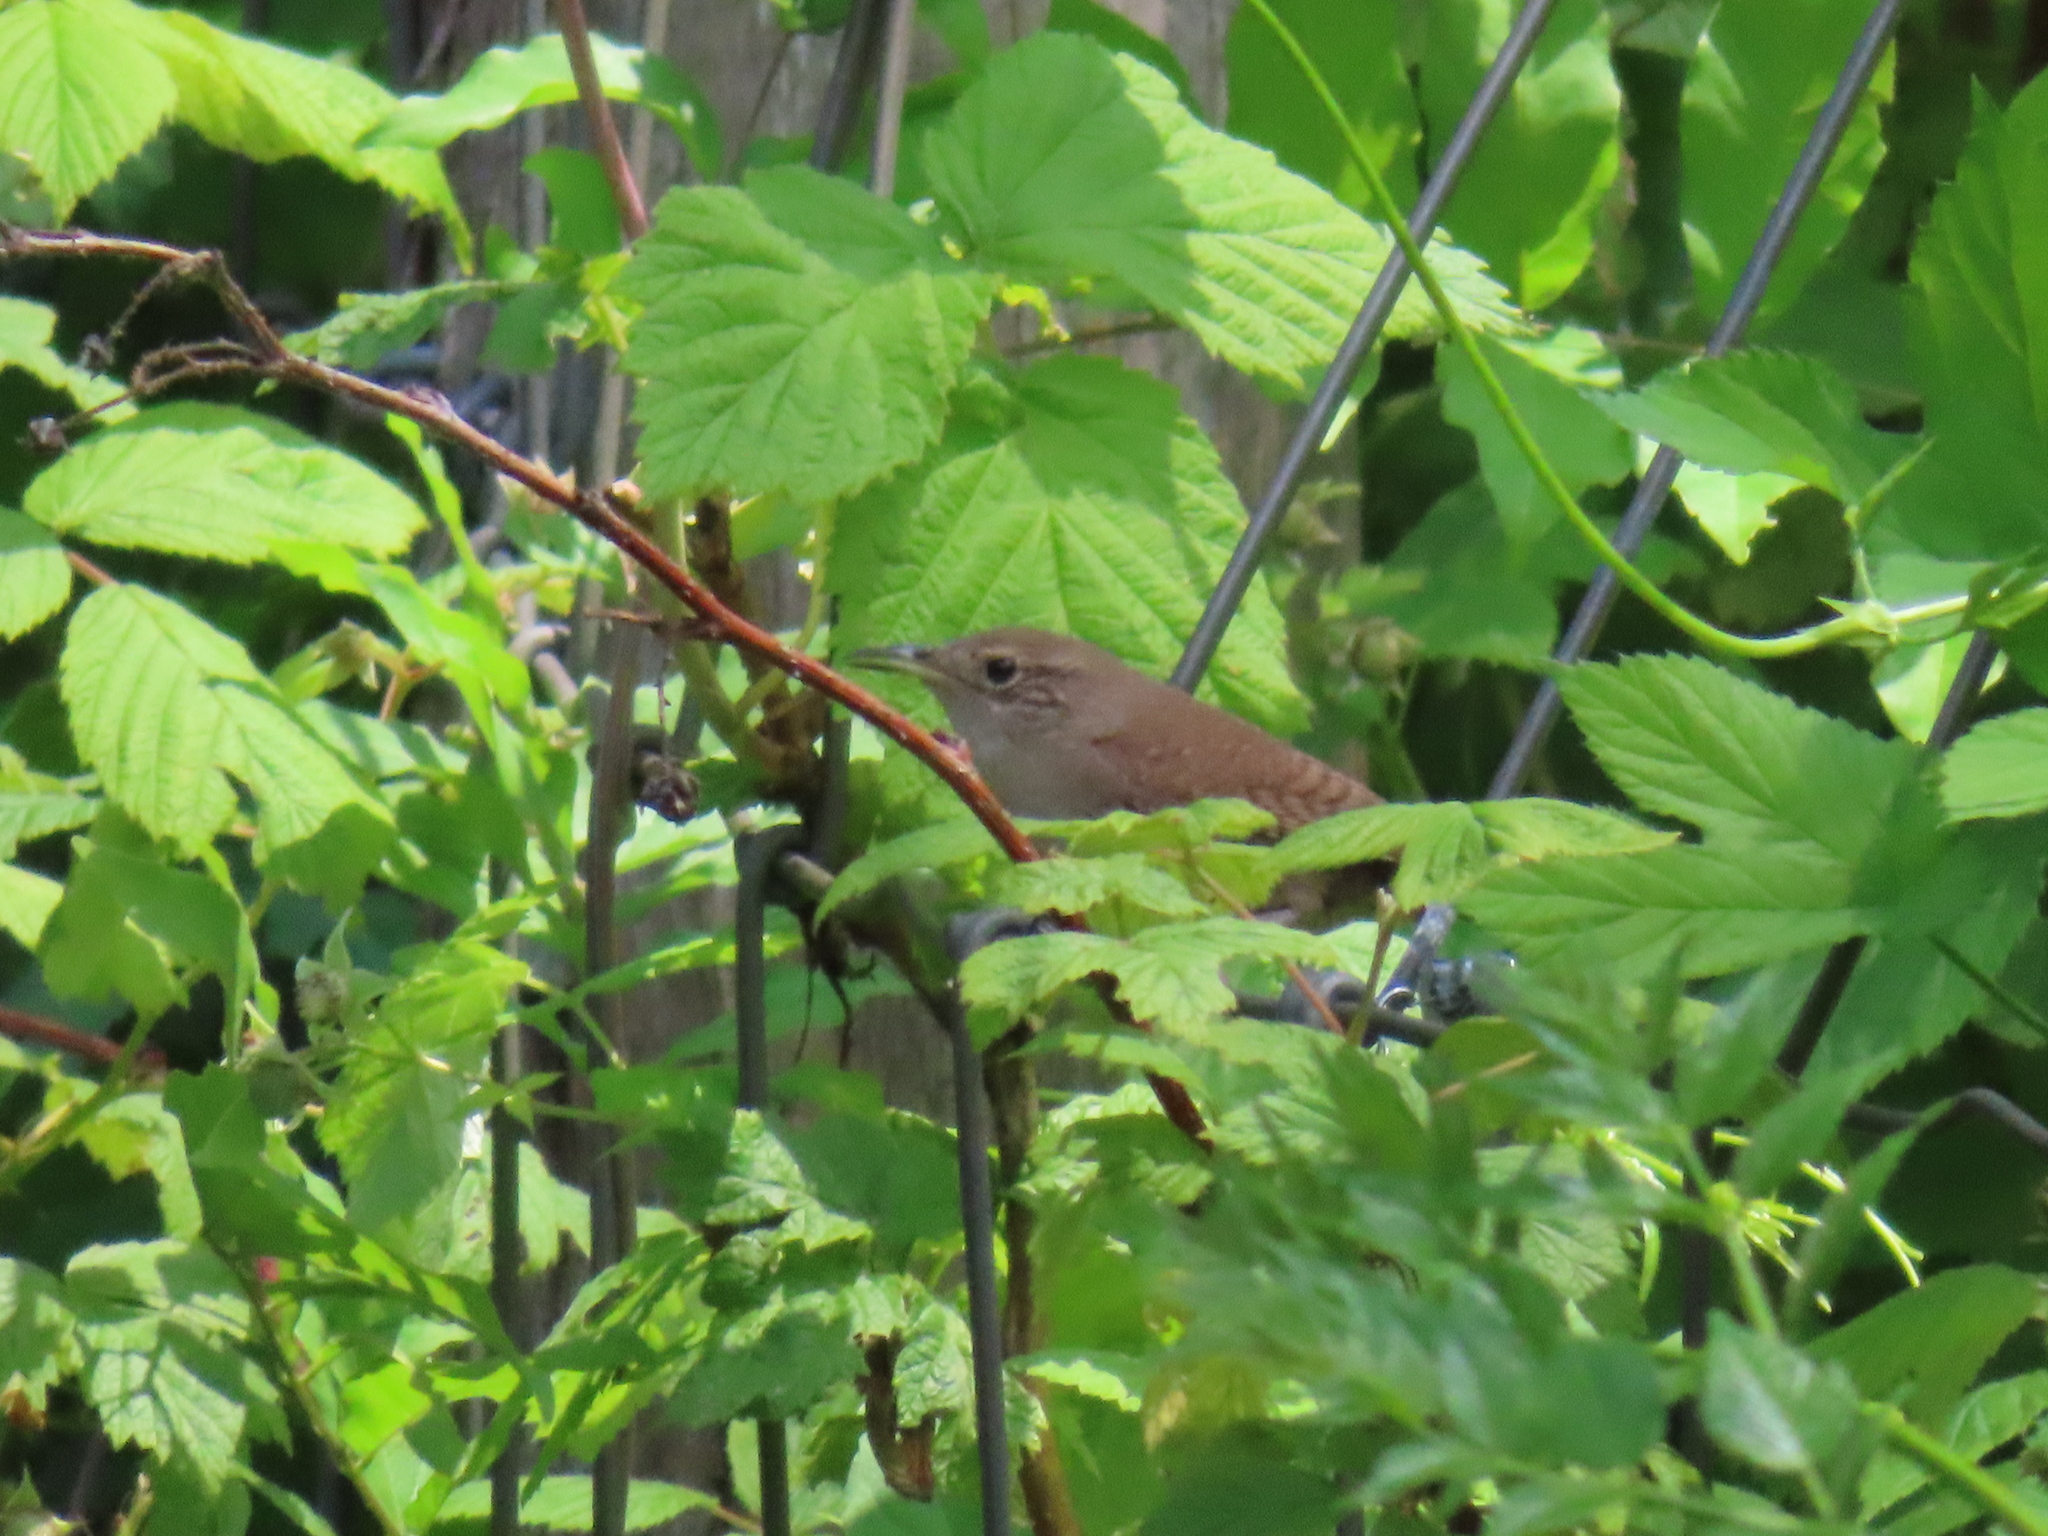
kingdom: Animalia
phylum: Chordata
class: Aves
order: Passeriformes
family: Troglodytidae
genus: Troglodytes
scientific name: Troglodytes aedon
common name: House wren
